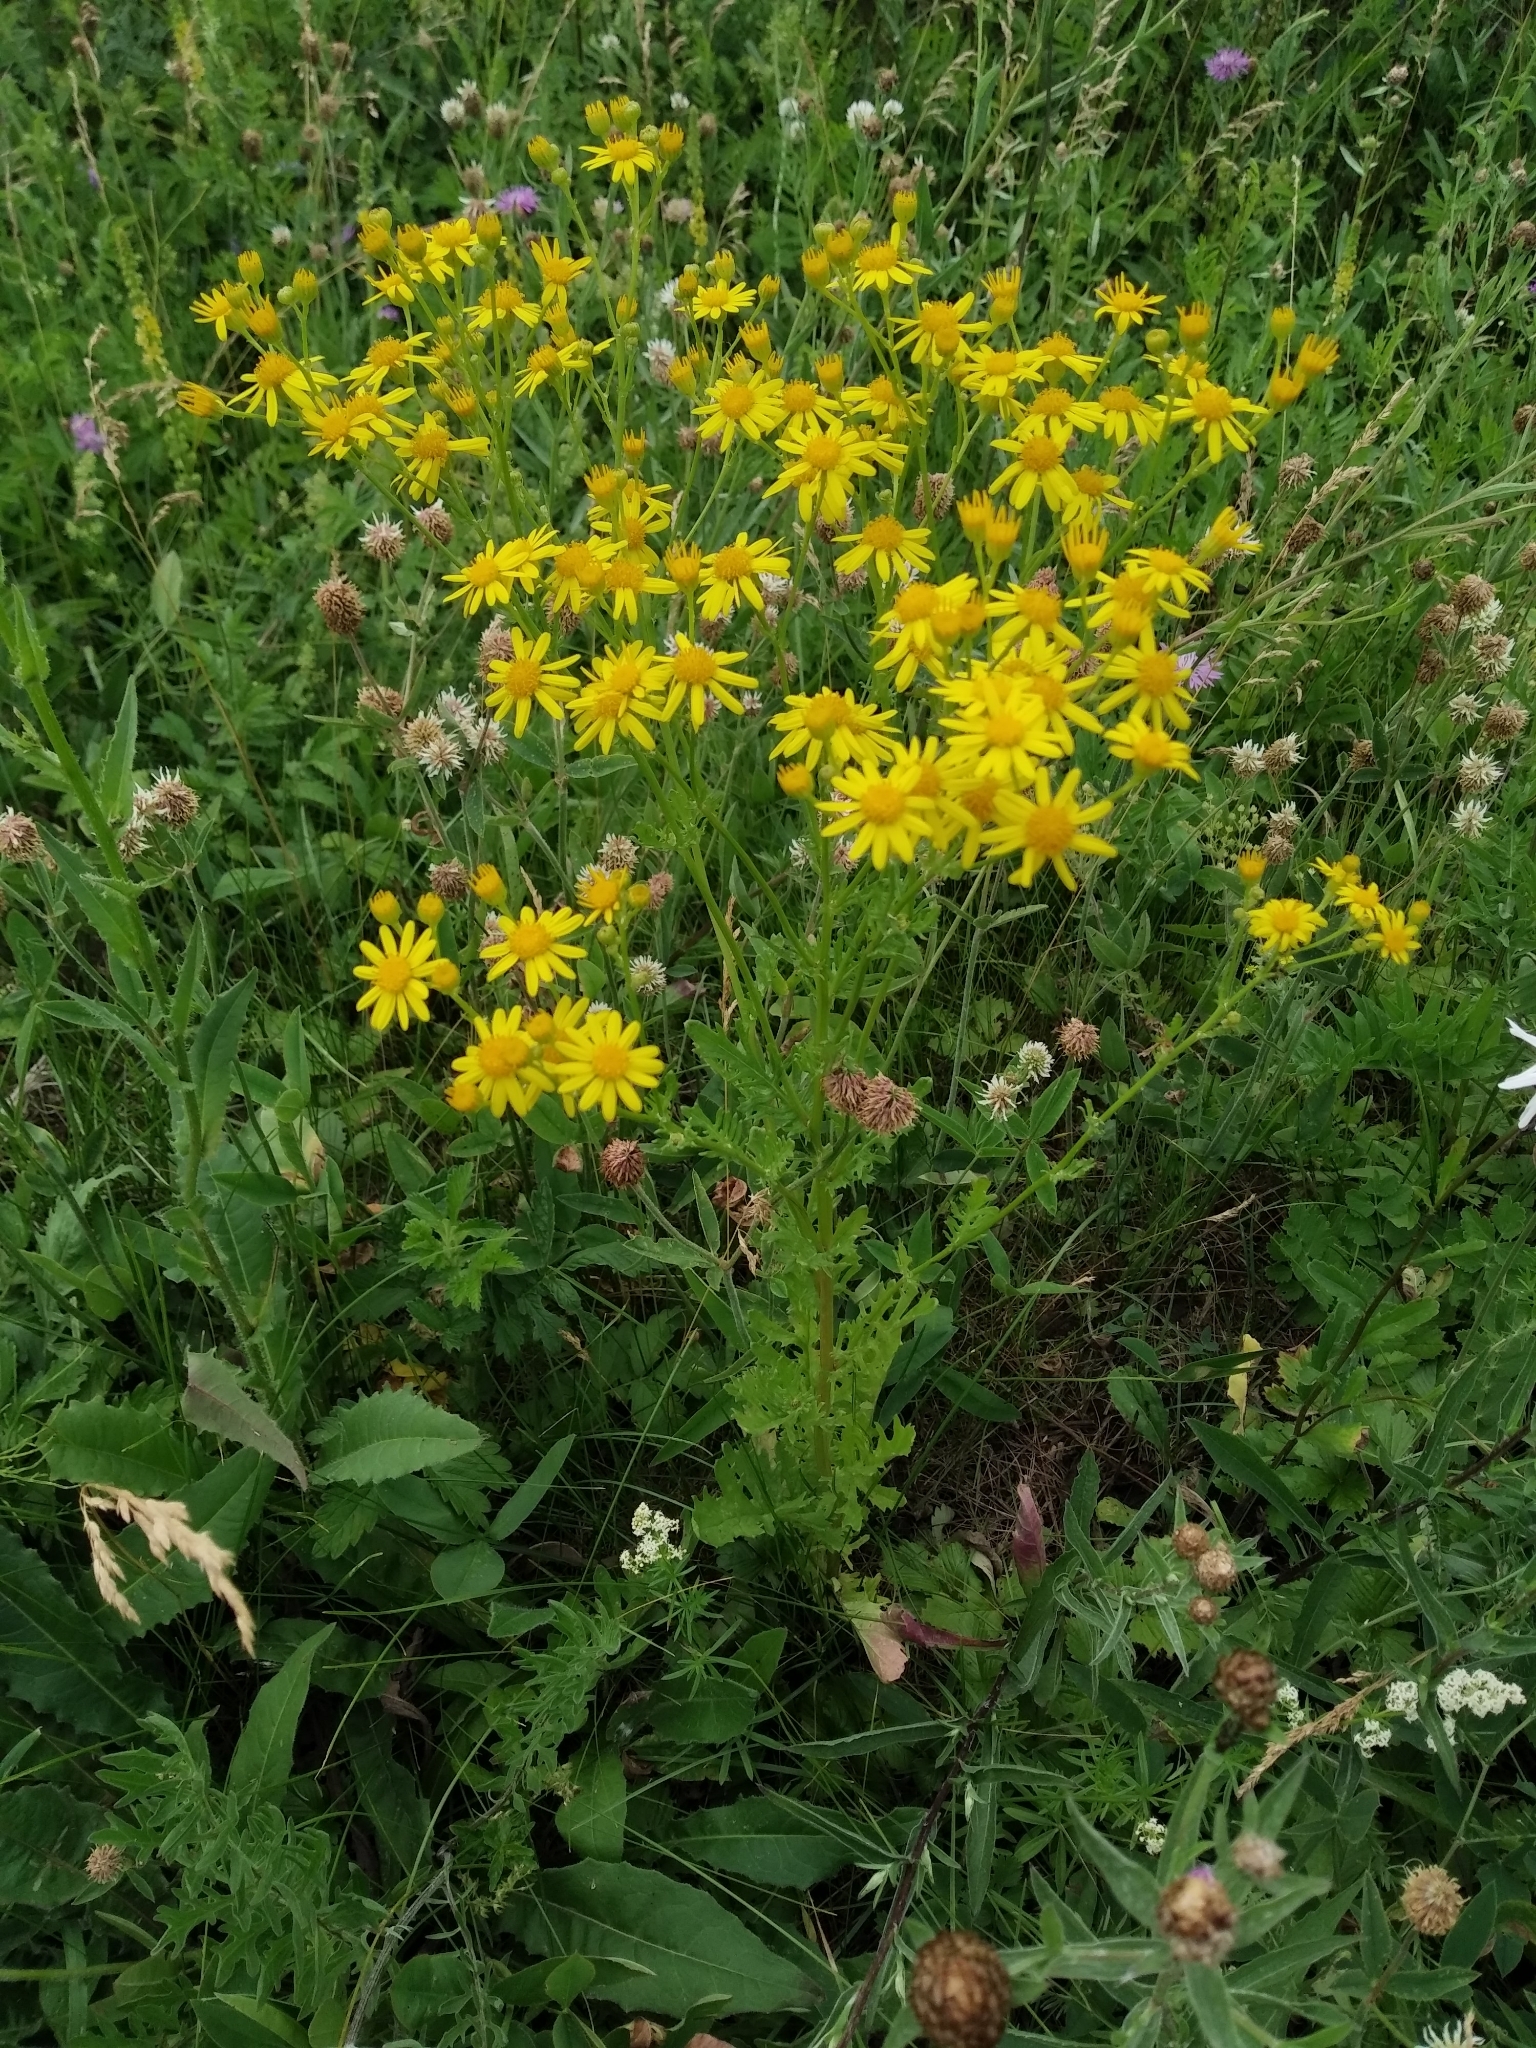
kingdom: Plantae
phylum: Tracheophyta
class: Magnoliopsida
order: Asterales
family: Asteraceae
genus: Jacobaea
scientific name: Jacobaea vulgaris
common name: Stinking willie
